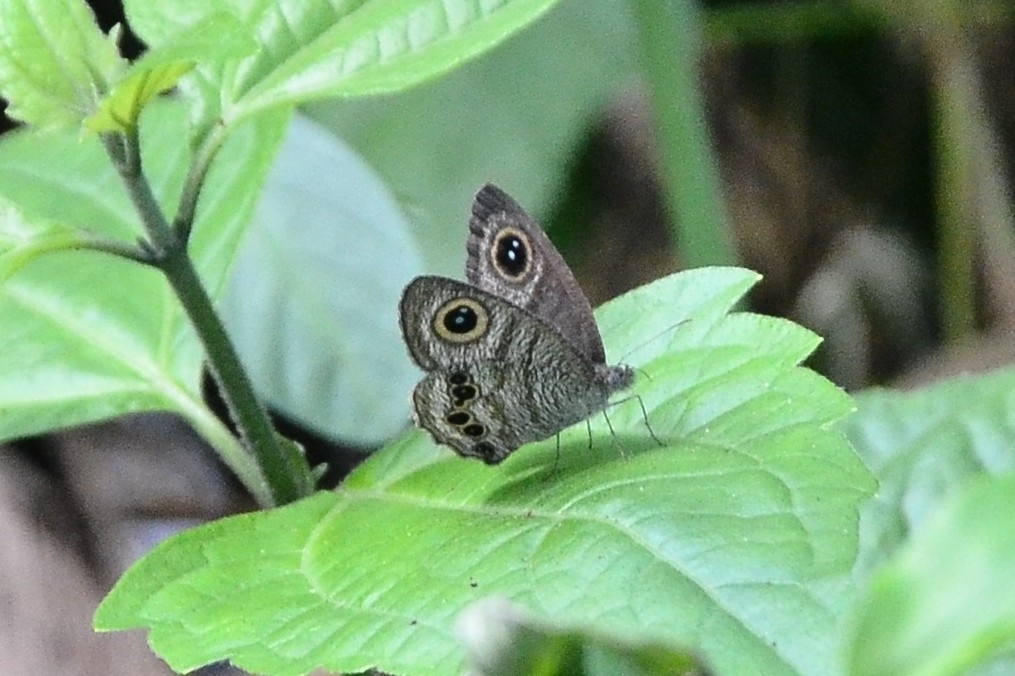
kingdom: Animalia
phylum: Arthropoda
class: Insecta
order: Lepidoptera
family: Nymphalidae
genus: Ypthima
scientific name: Ypthima baldus
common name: Common five-ring
